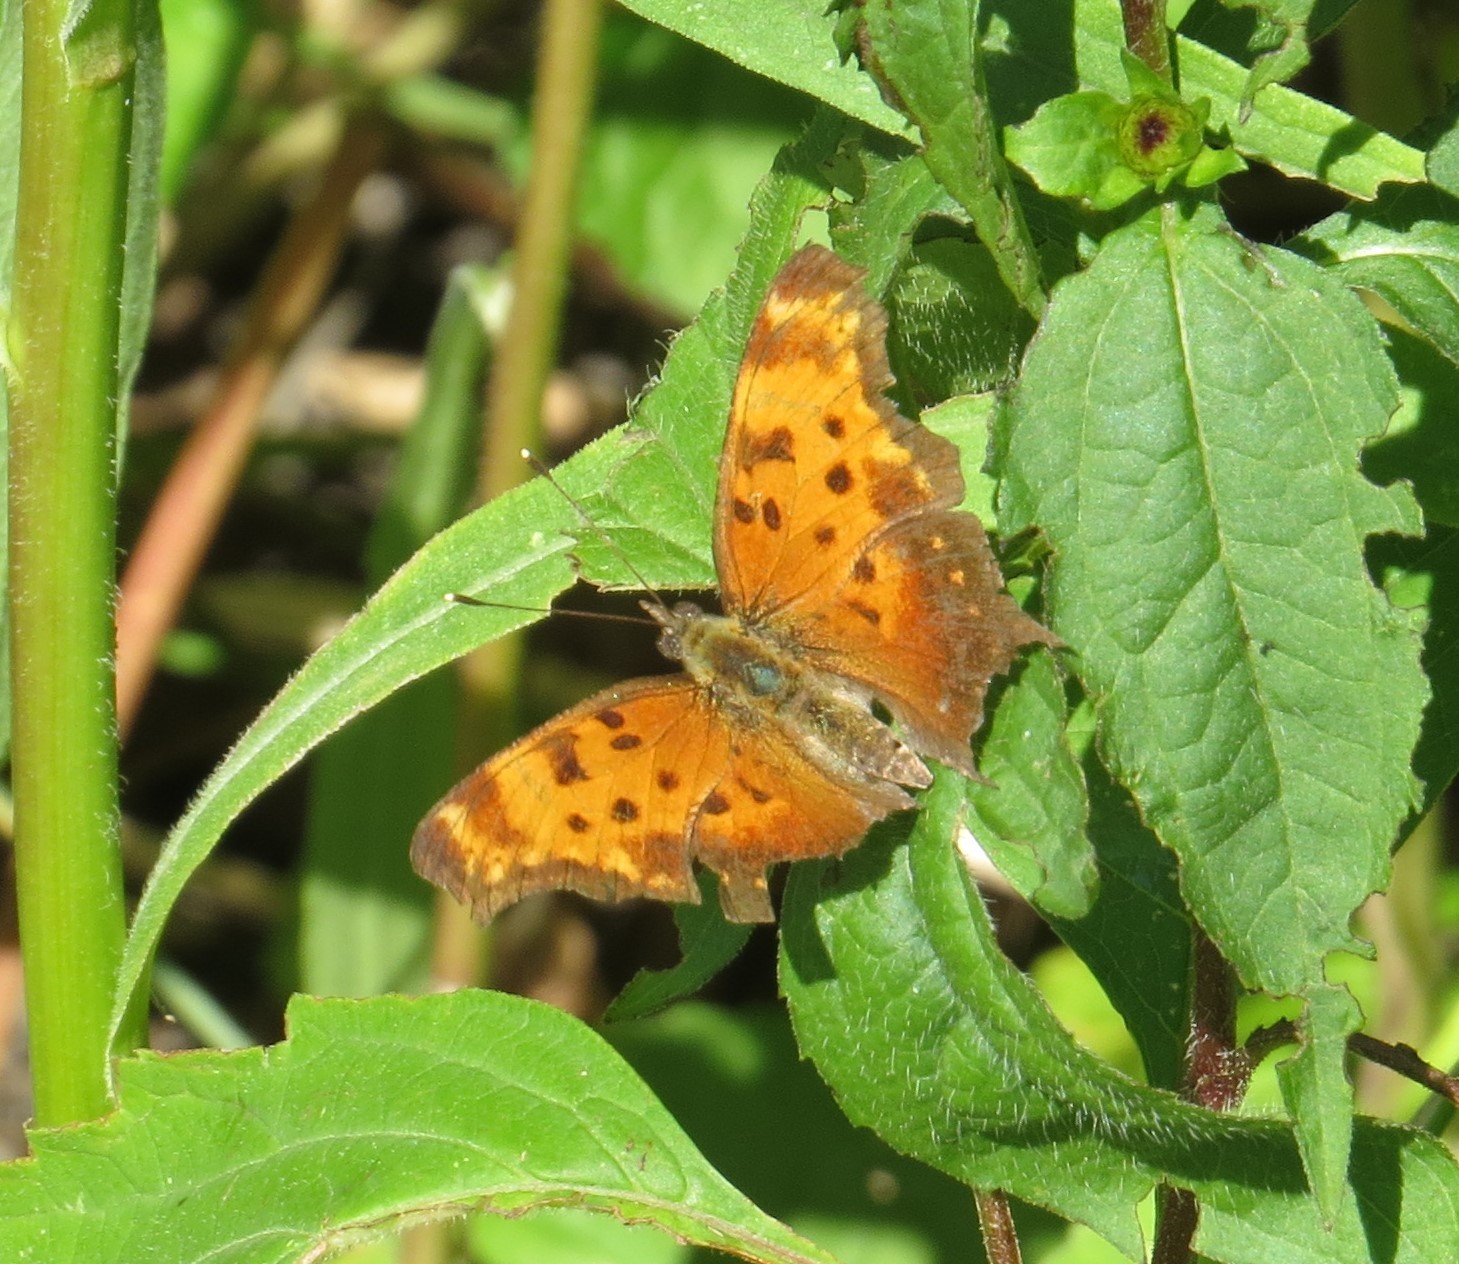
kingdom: Animalia
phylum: Arthropoda
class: Insecta
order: Lepidoptera
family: Nymphalidae
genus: Polygonia
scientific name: Polygonia progne
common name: Gray comma
